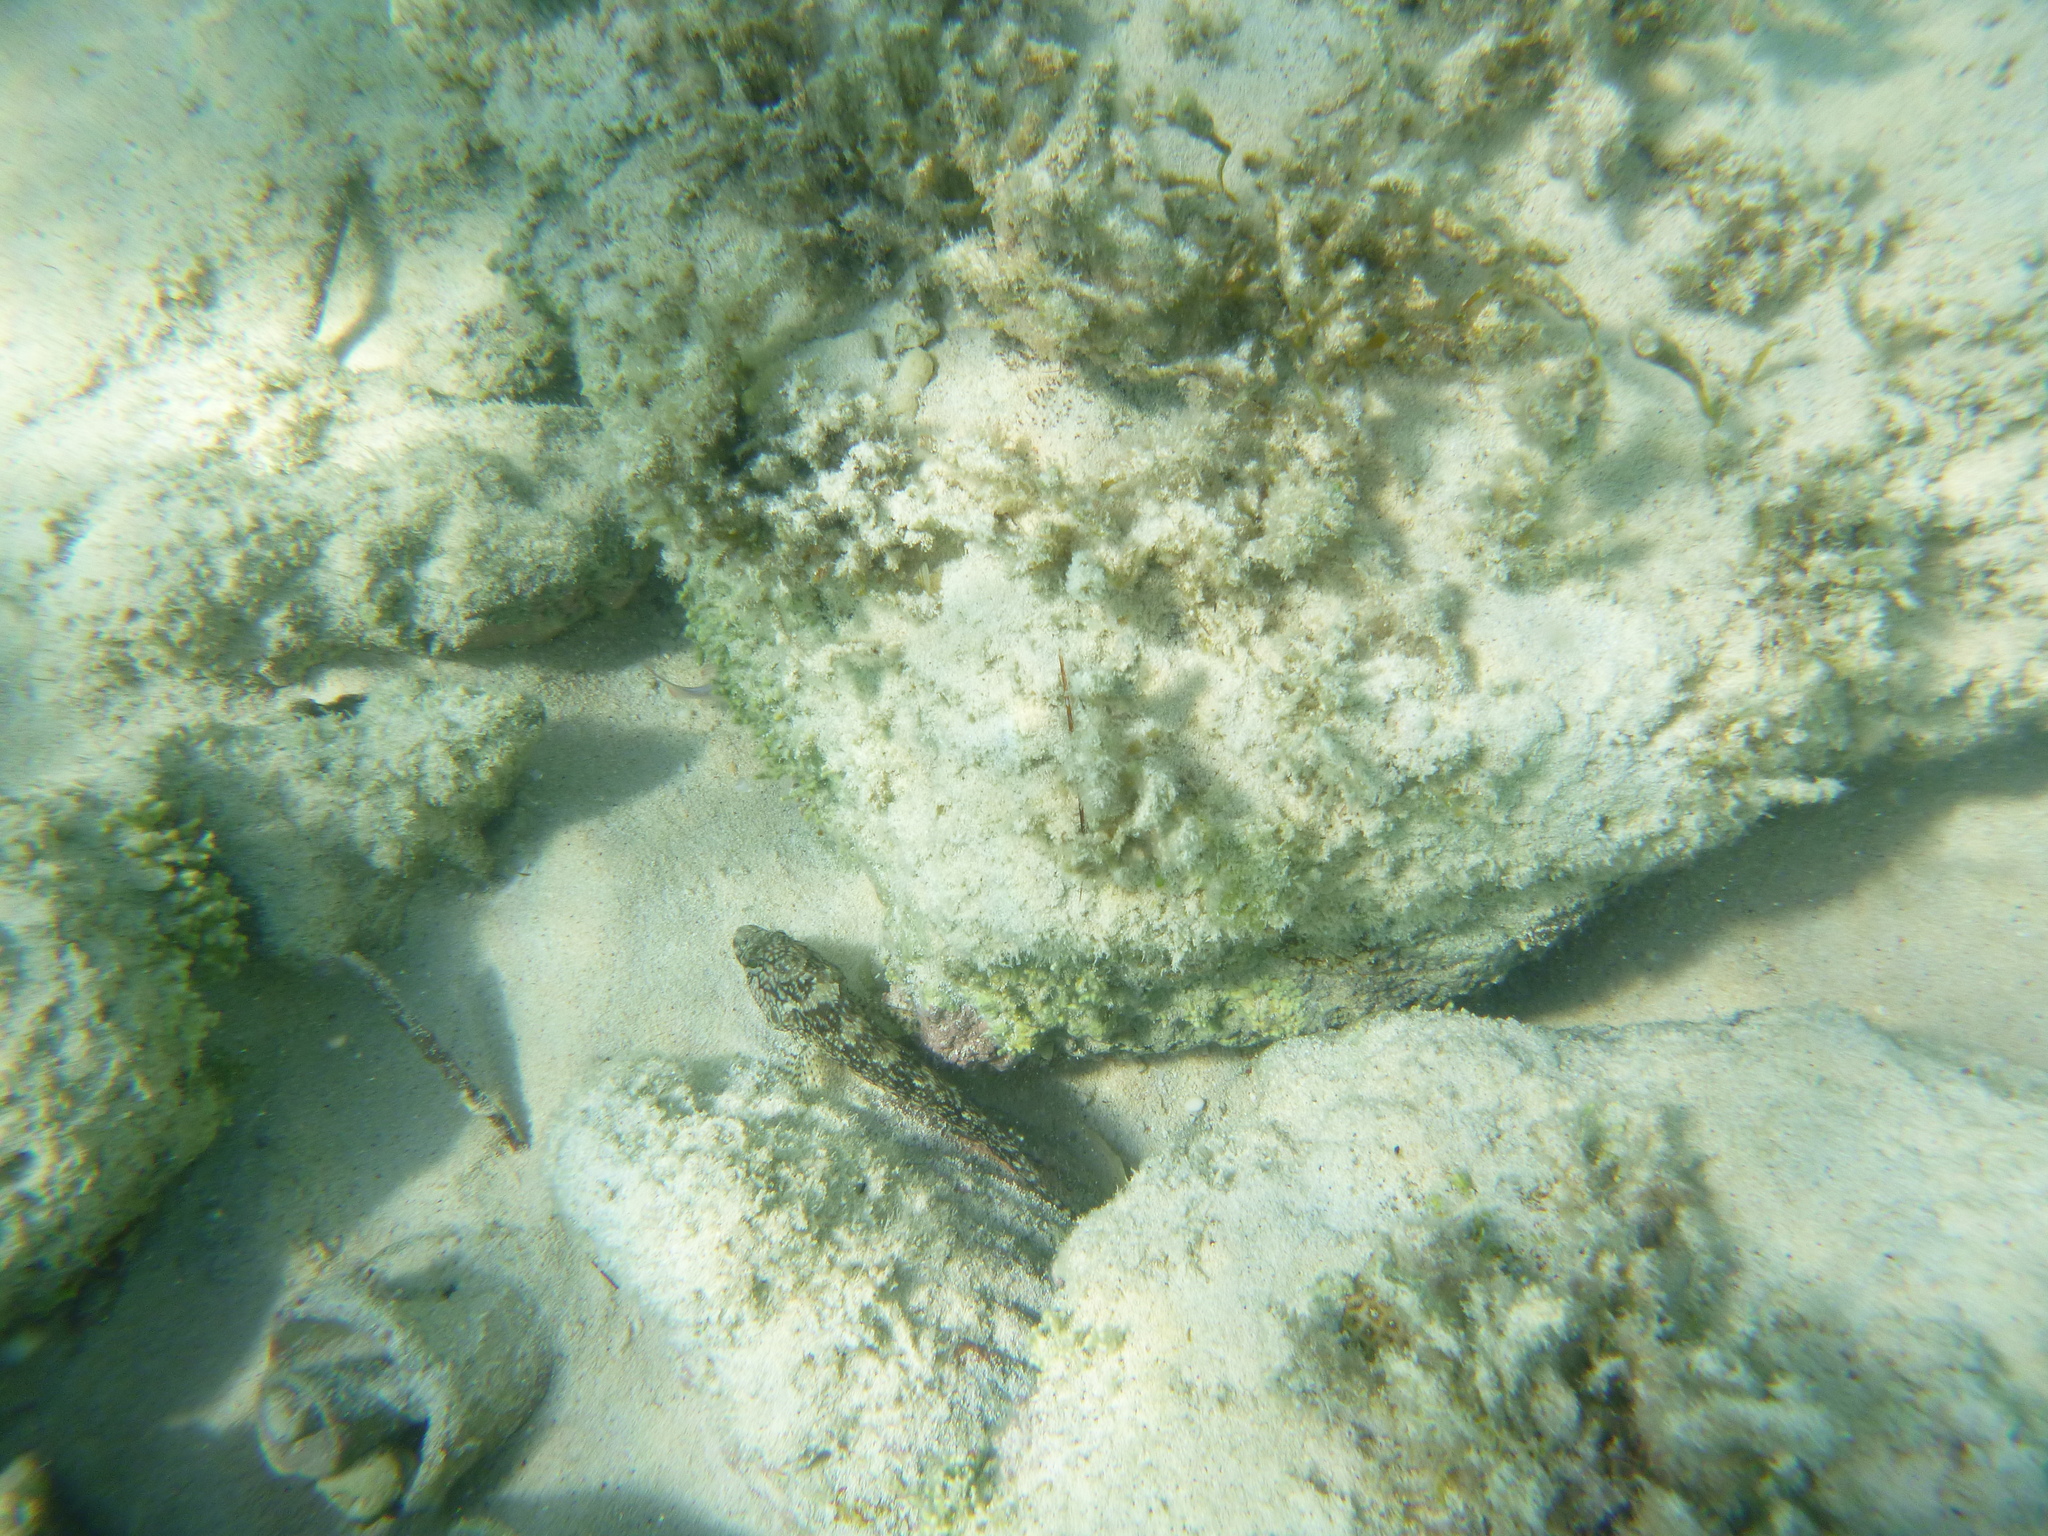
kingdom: Animalia
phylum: Chordata
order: Perciformes
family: Labrisomidae
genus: Labrisomus
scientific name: Labrisomus nuchipinnis
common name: Hairy blenny
